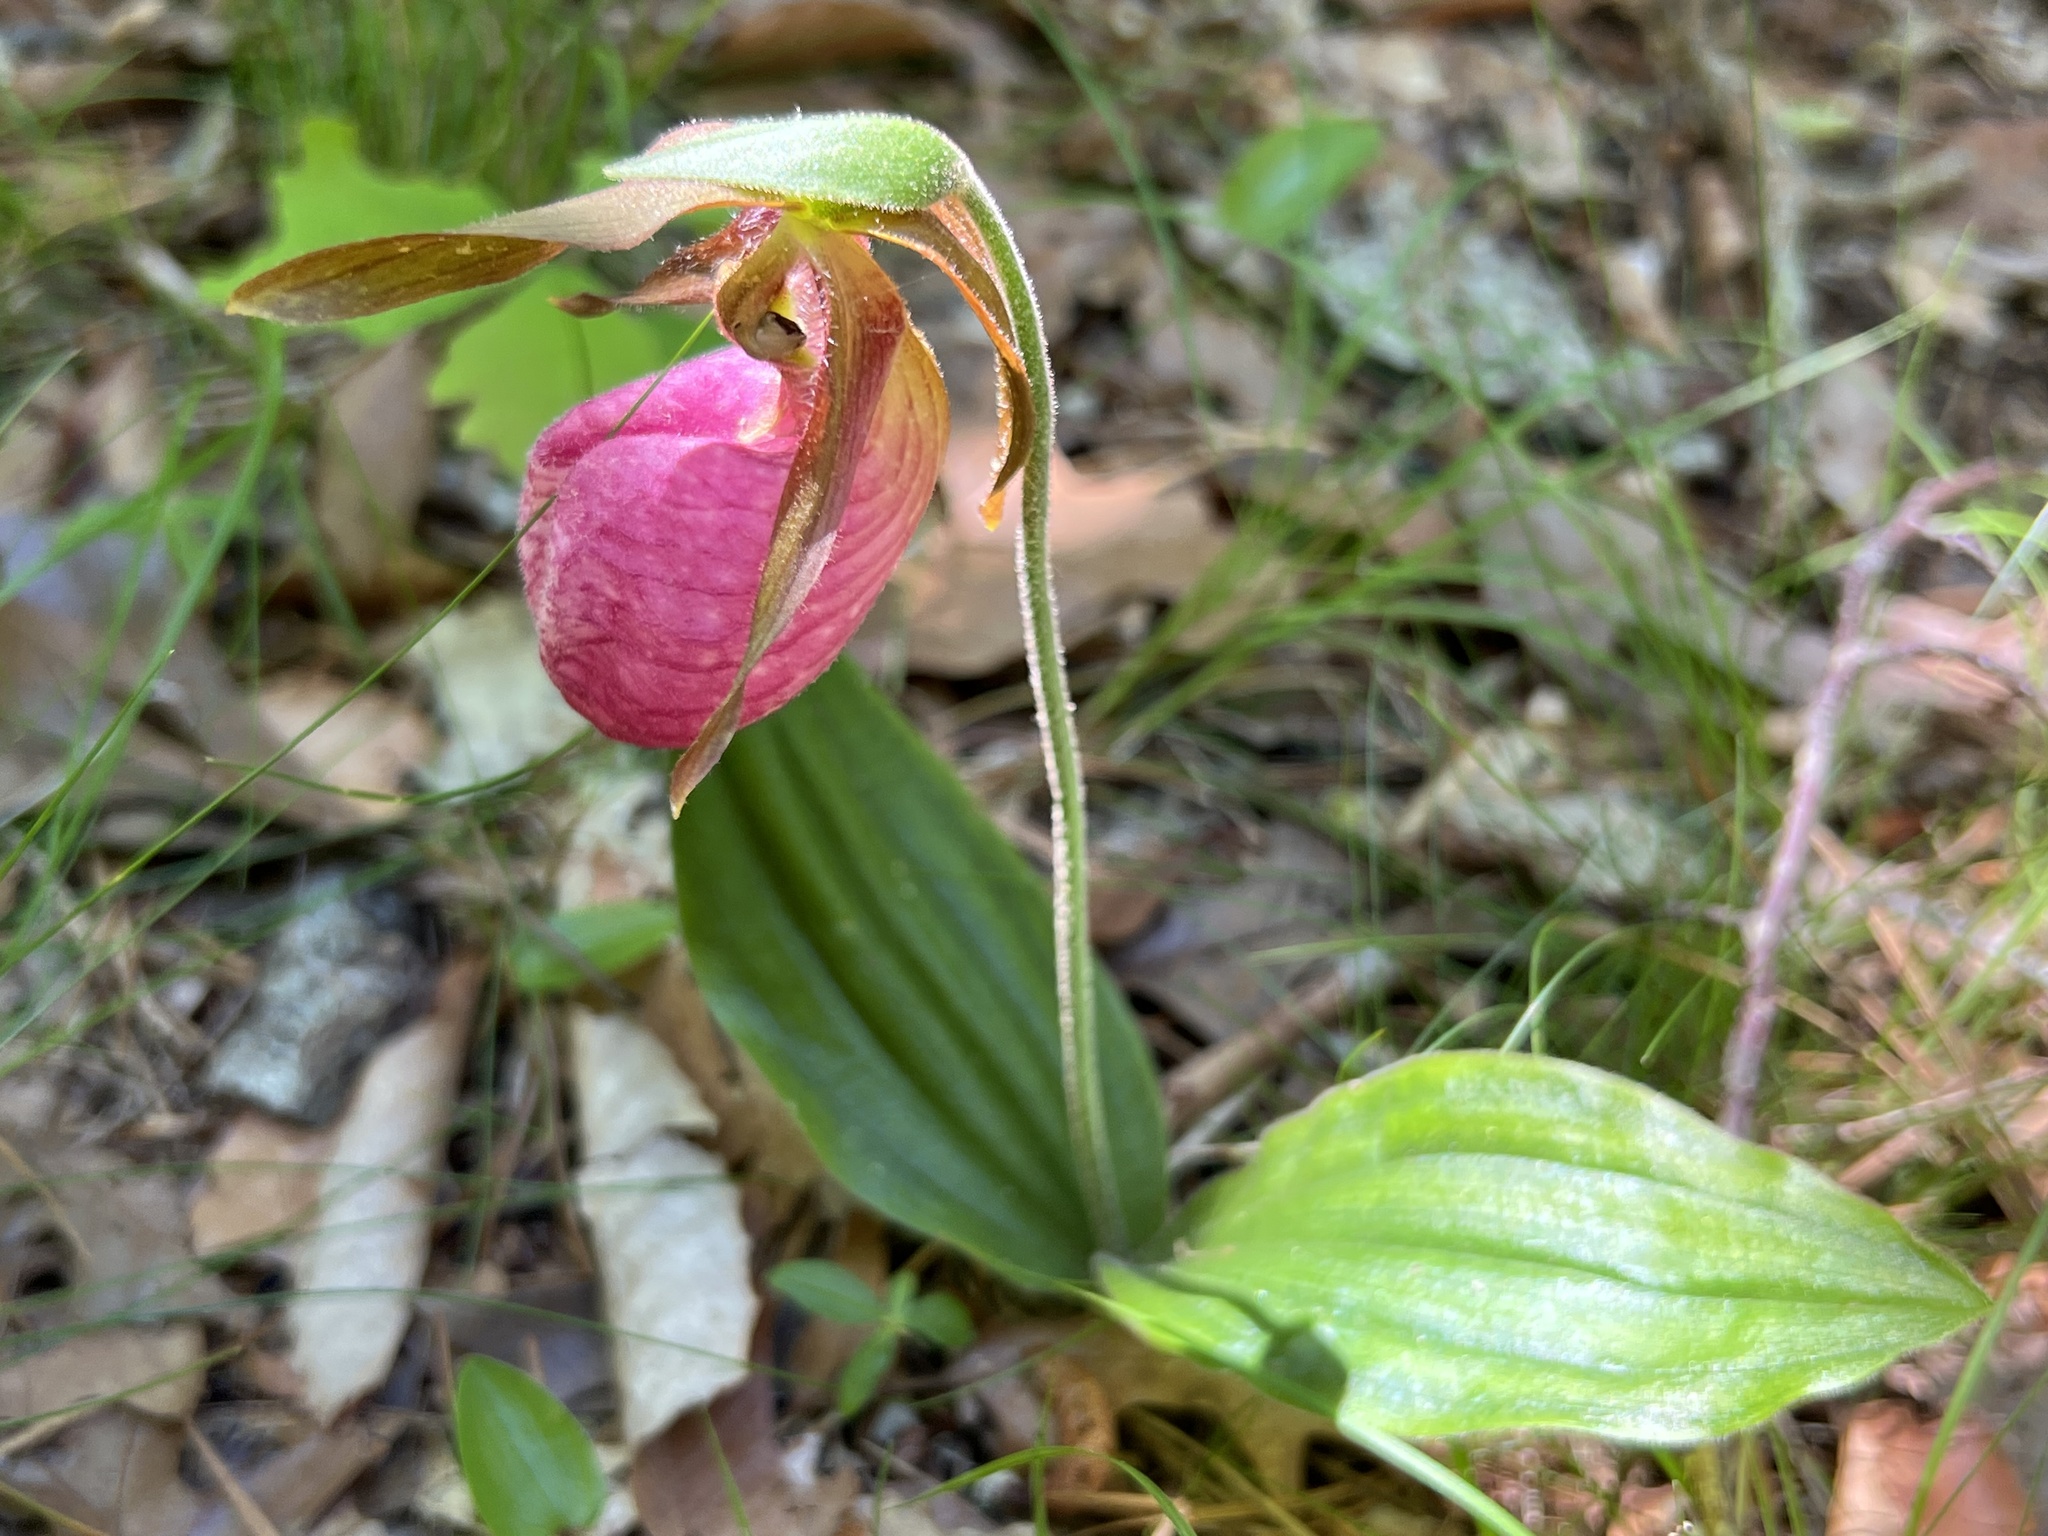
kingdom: Plantae
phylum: Tracheophyta
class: Liliopsida
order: Asparagales
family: Orchidaceae
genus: Cypripedium
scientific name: Cypripedium acaule
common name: Pink lady's-slipper
